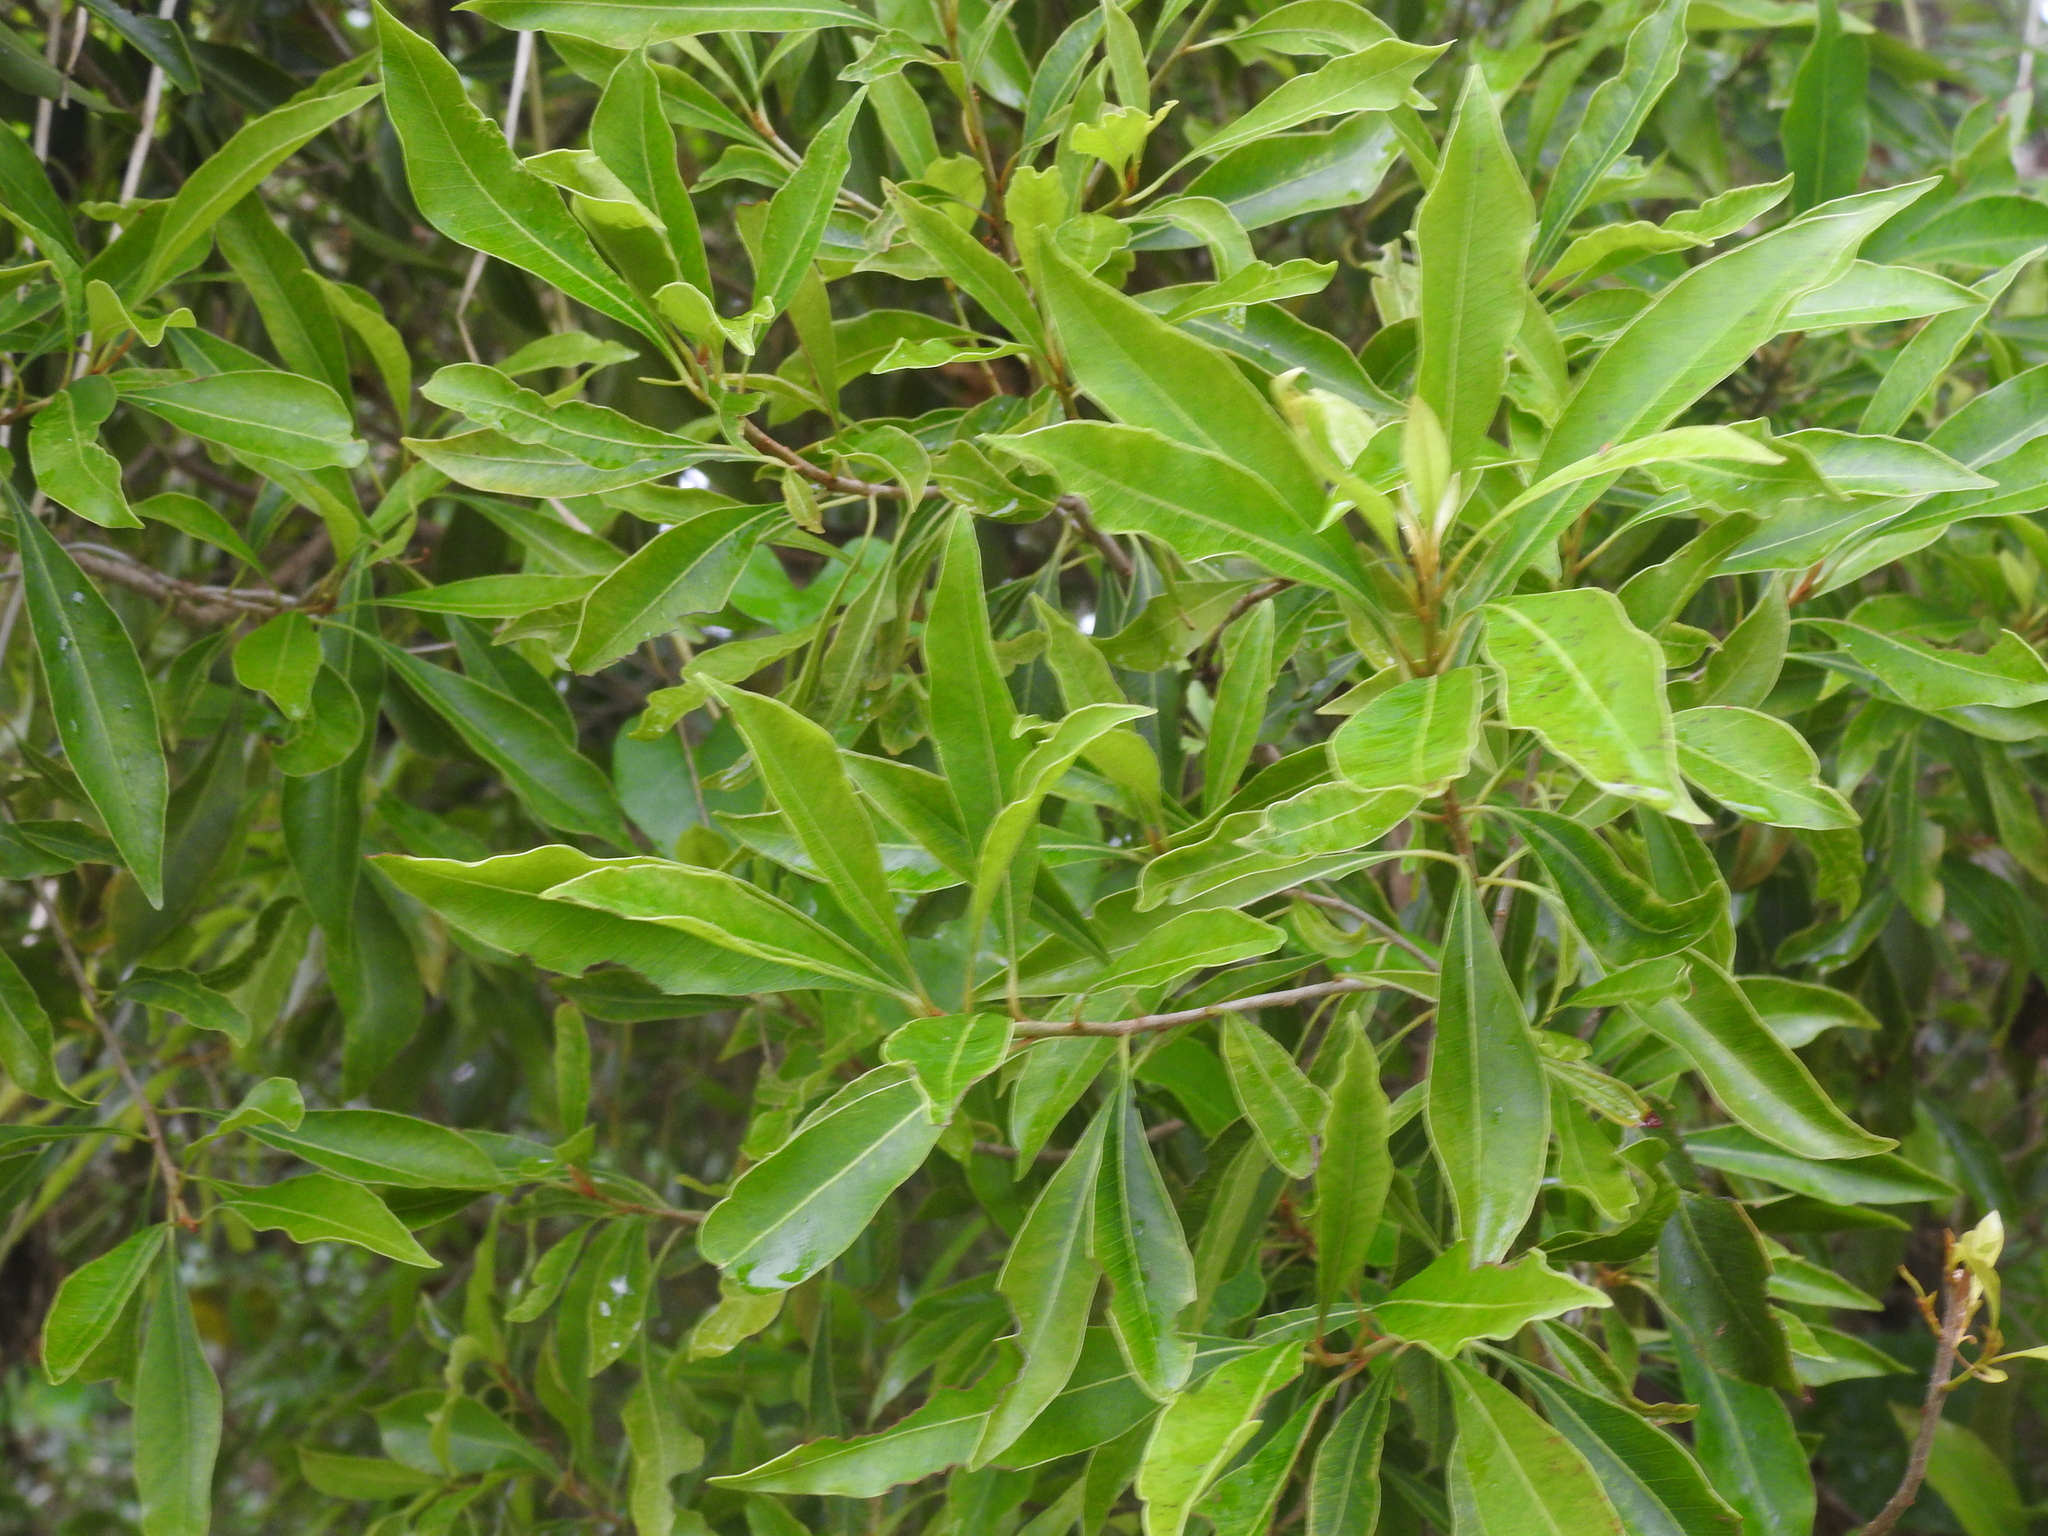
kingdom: Plantae
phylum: Tracheophyta
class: Magnoliopsida
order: Ericales
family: Sapotaceae
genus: Sideroxylon
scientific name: Sideroxylon salicifolium
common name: White bully
